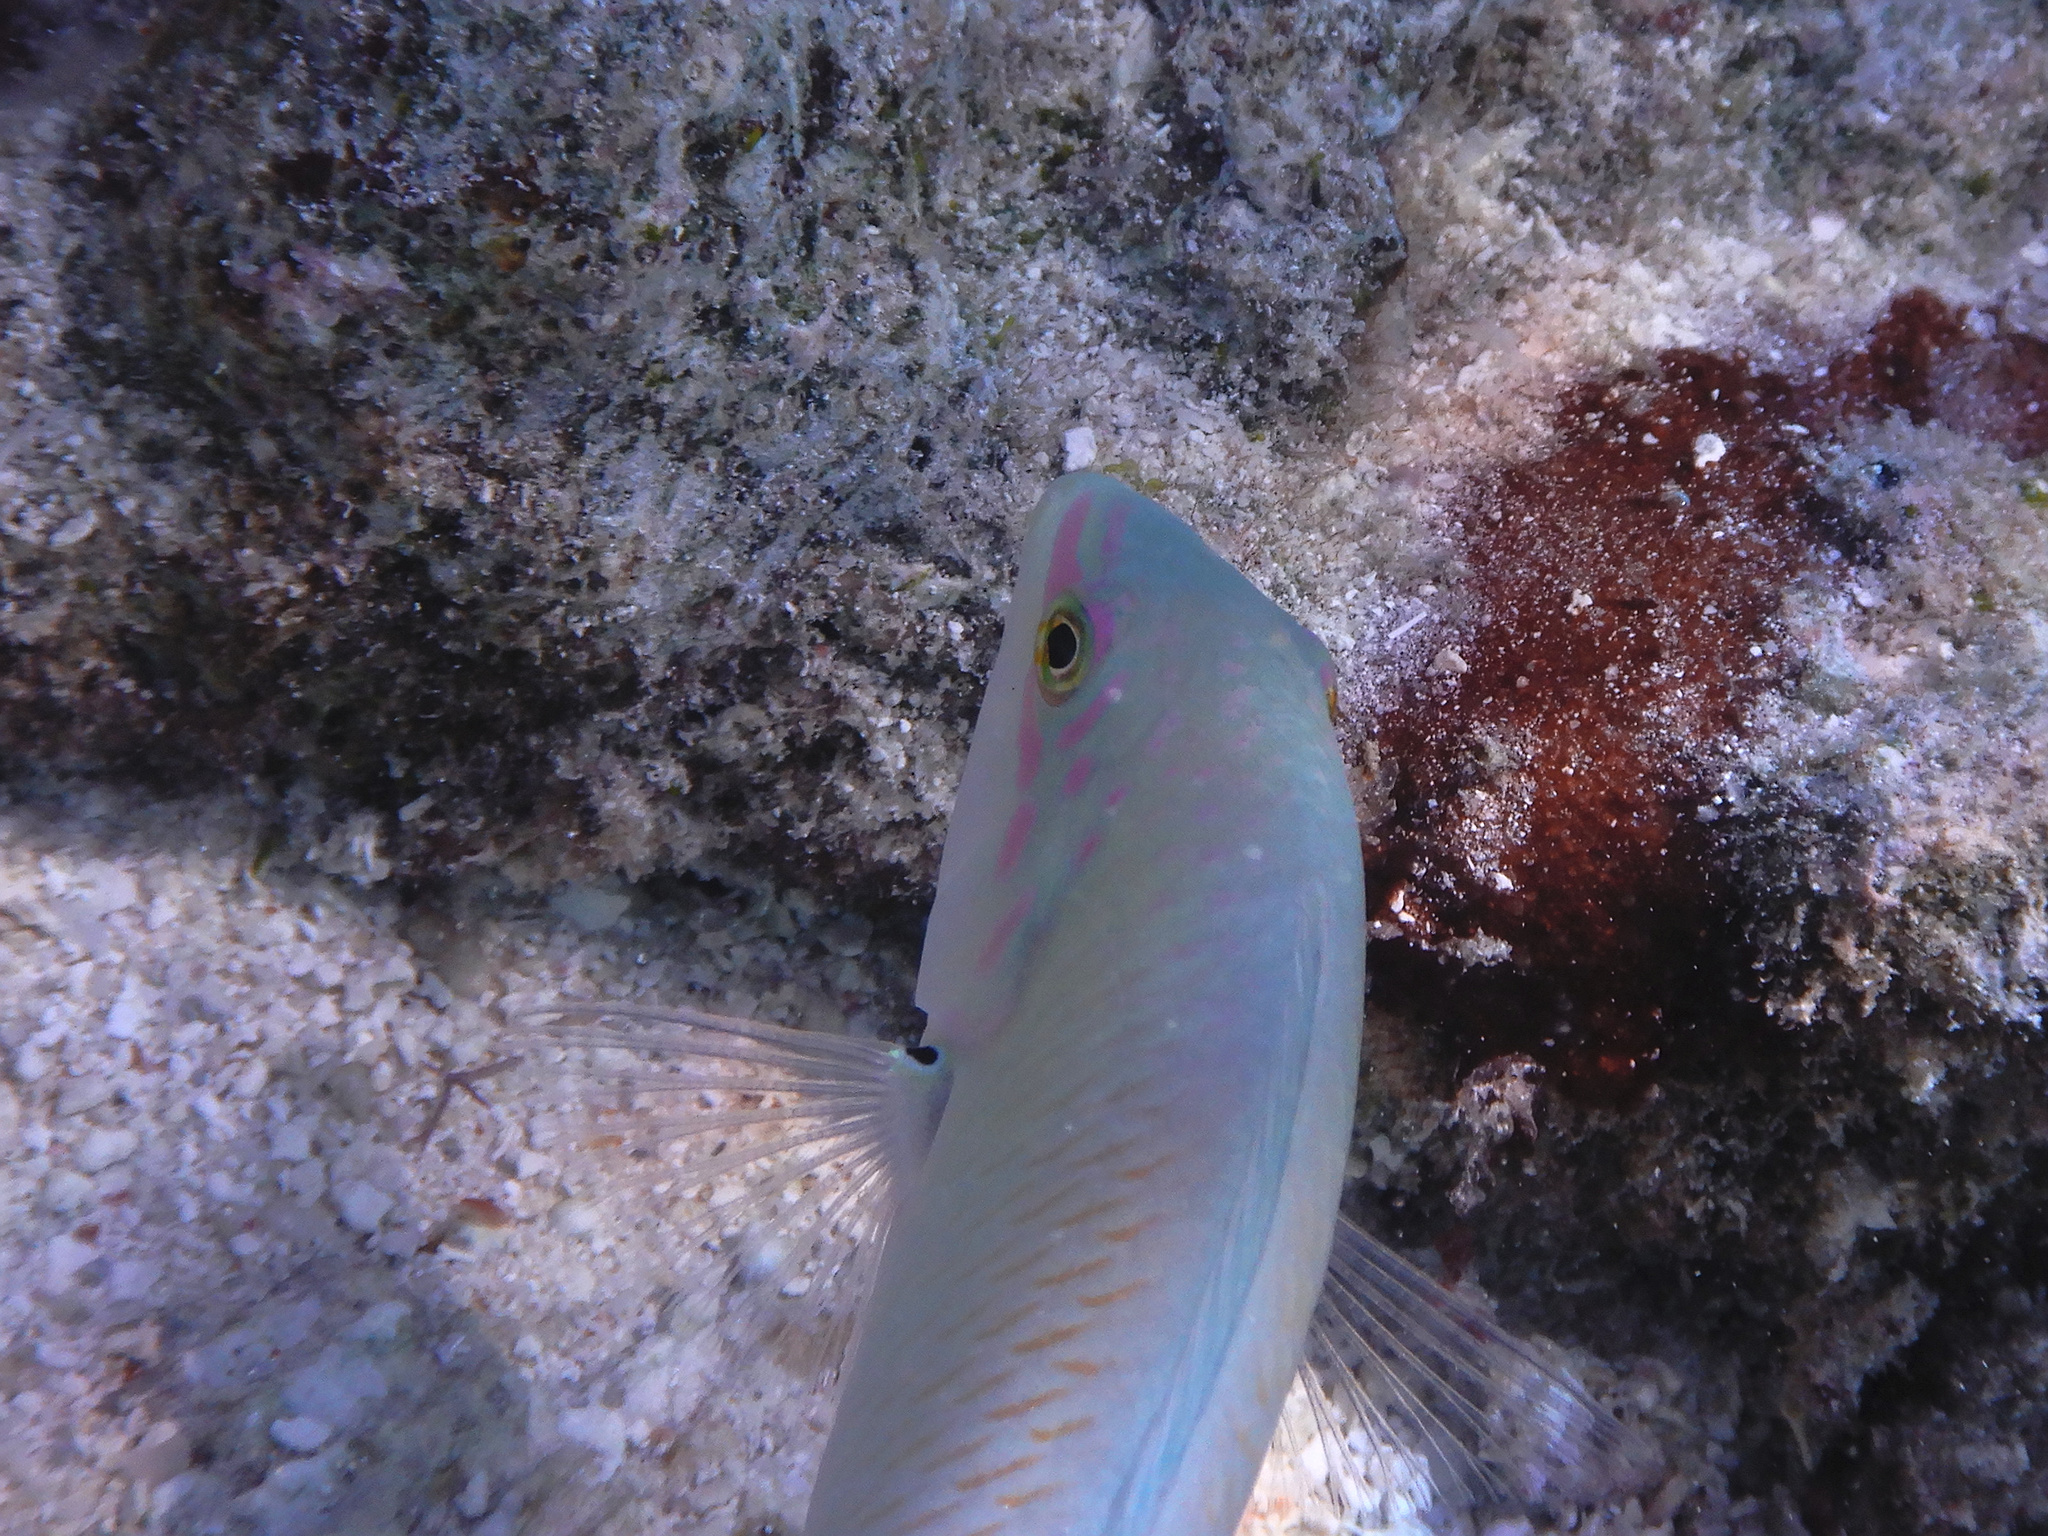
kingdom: Animalia
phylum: Chordata
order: Perciformes
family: Labridae
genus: Halichoeres
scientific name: Halichoeres trimaculatus
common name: Three-spot wrasse
